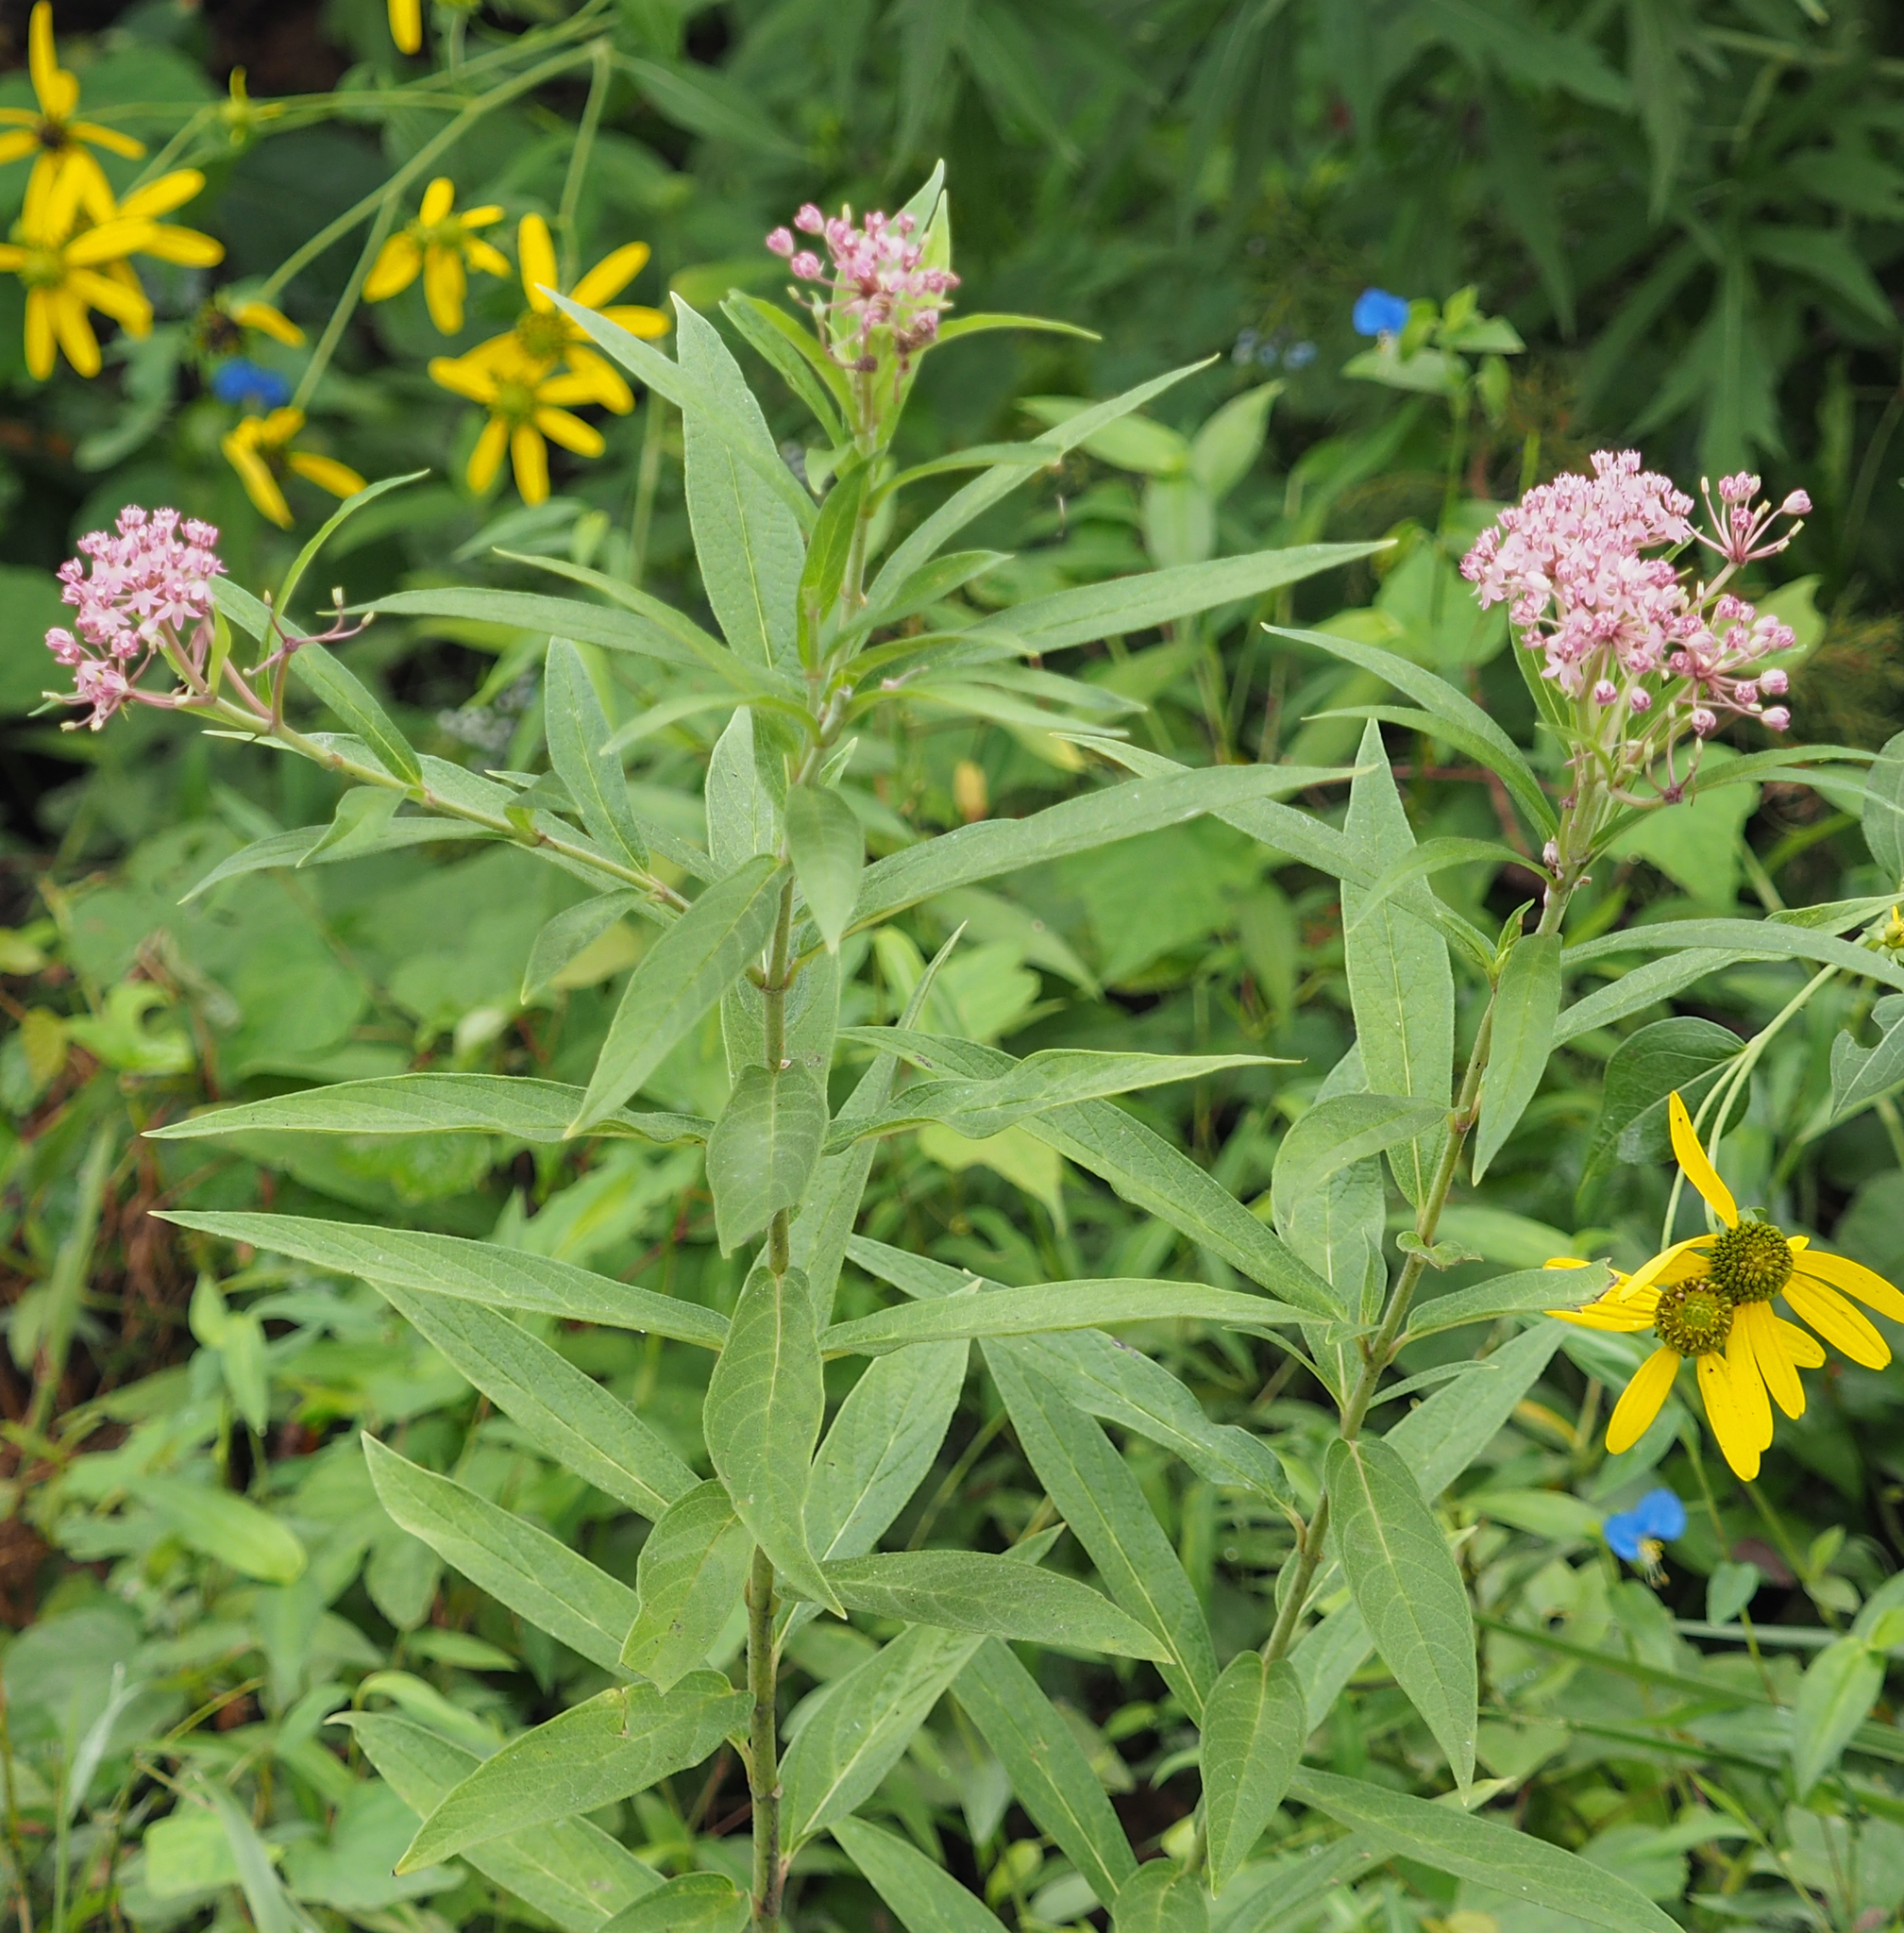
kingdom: Plantae
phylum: Tracheophyta
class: Magnoliopsida
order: Gentianales
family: Apocynaceae
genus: Asclepias
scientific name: Asclepias incarnata
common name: Swamp milkweed
